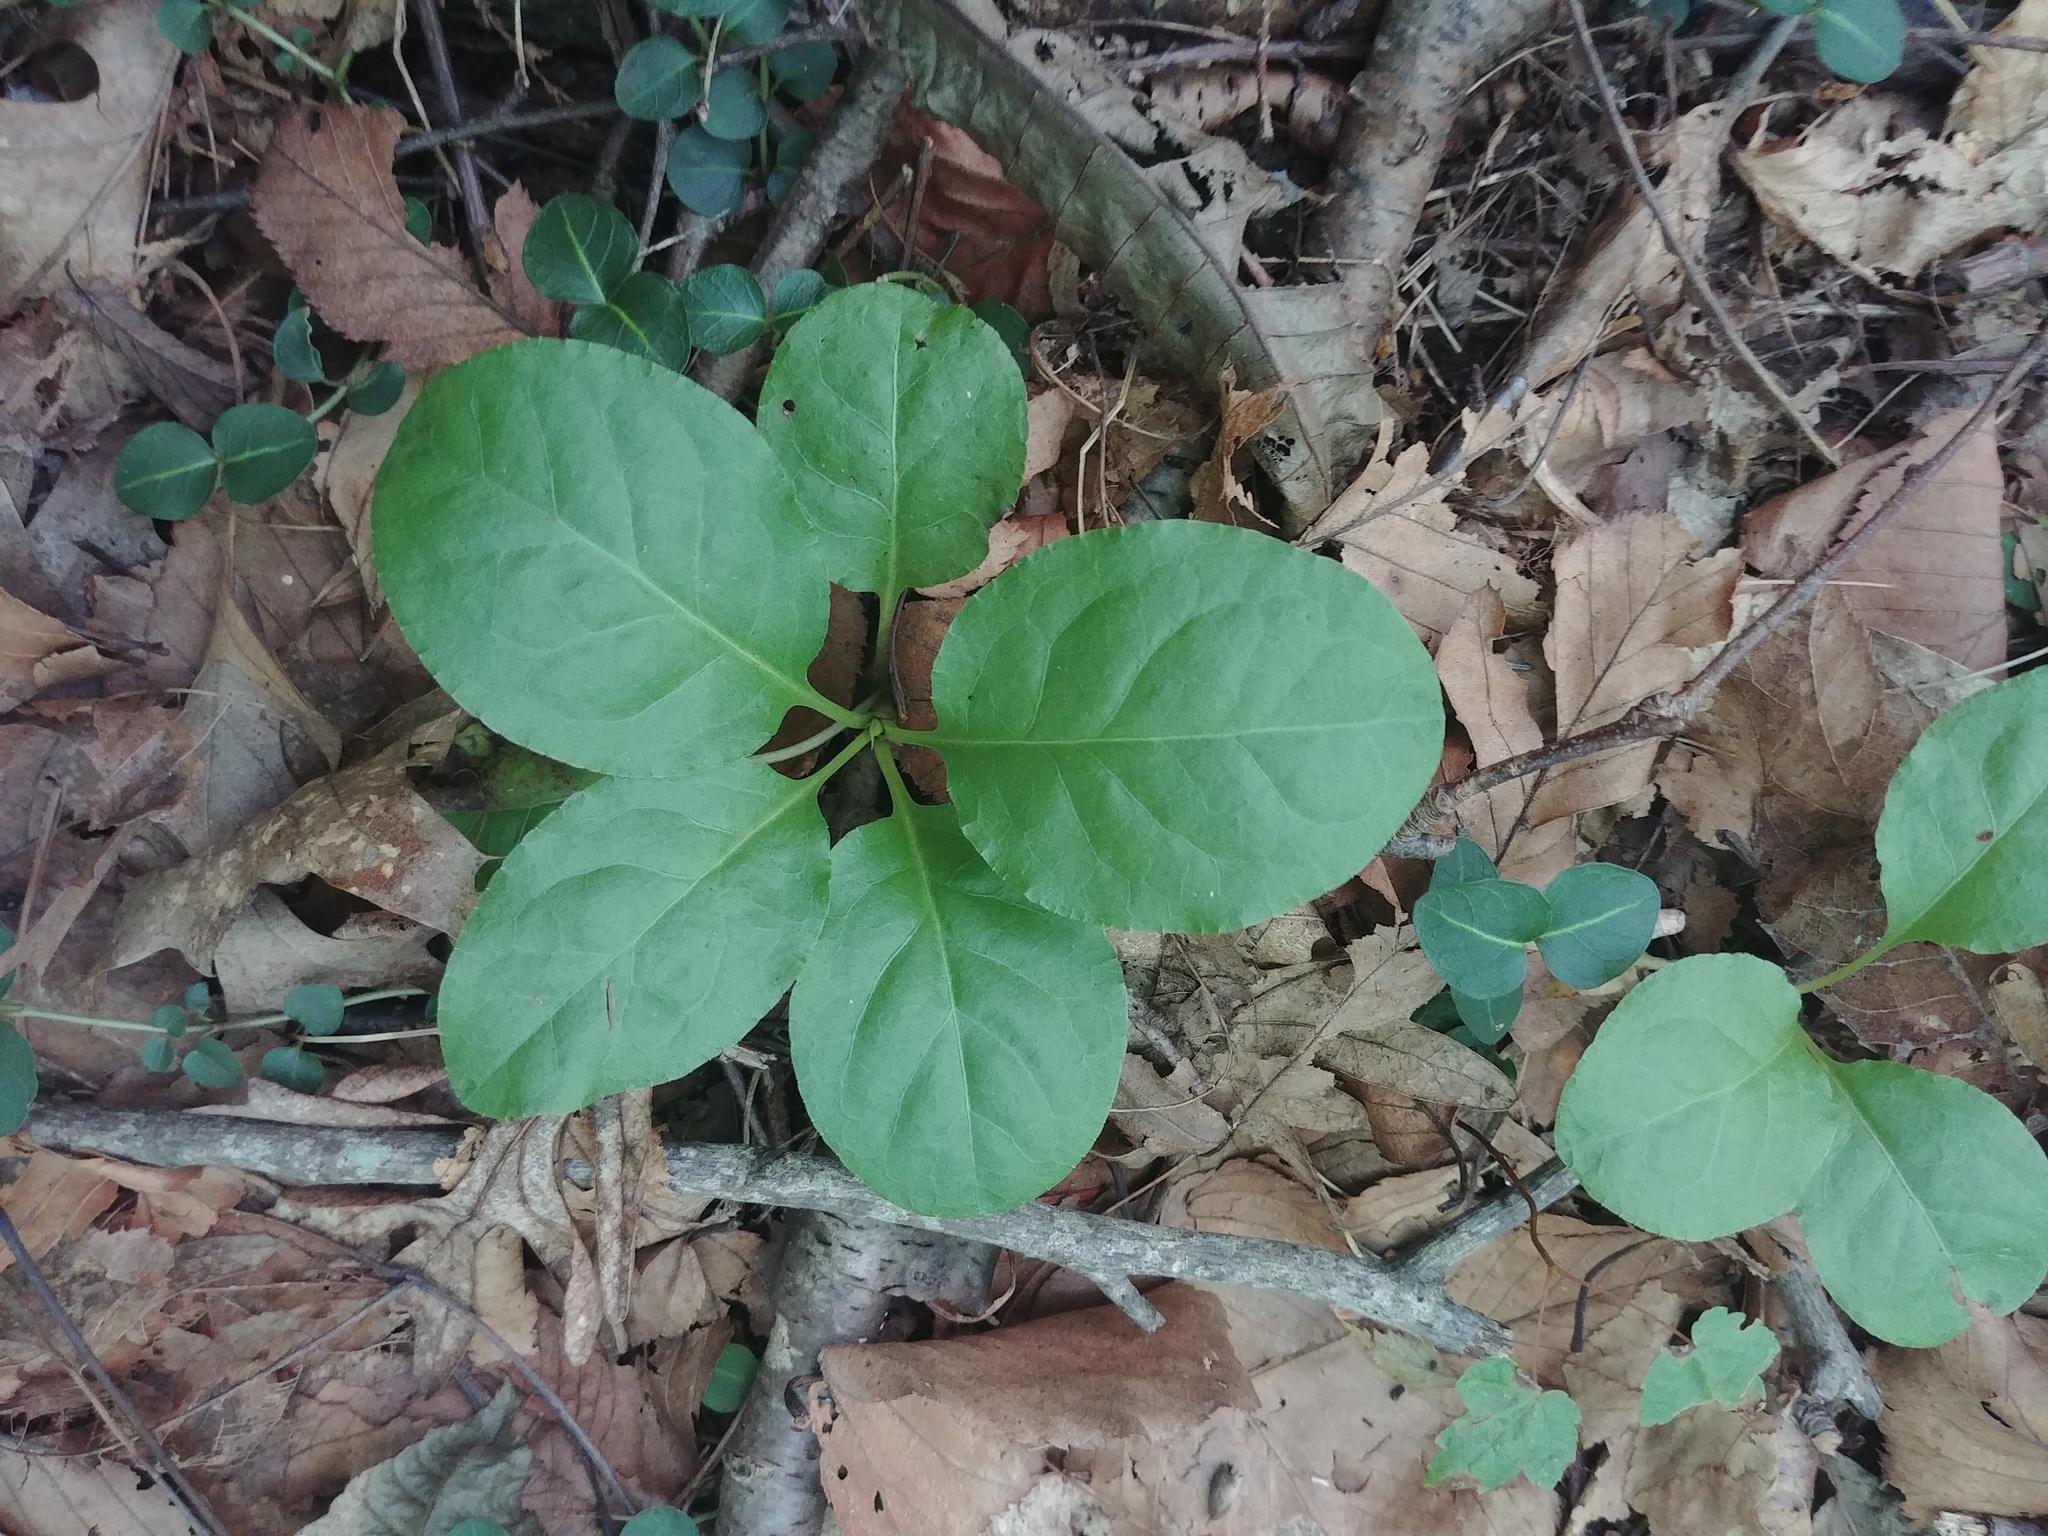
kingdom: Plantae
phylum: Tracheophyta
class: Magnoliopsida
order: Ericales
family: Ericaceae
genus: Pyrola
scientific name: Pyrola elliptica
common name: Shinleaf
